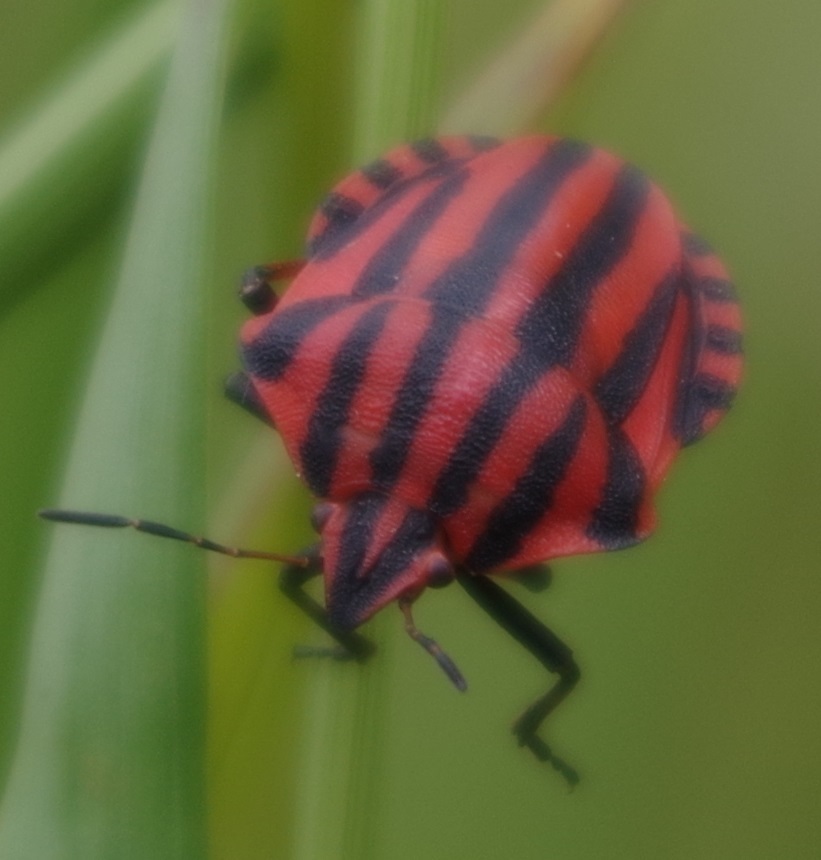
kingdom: Animalia
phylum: Arthropoda
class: Insecta
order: Hemiptera
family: Pentatomidae
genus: Graphosoma
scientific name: Graphosoma italicum
